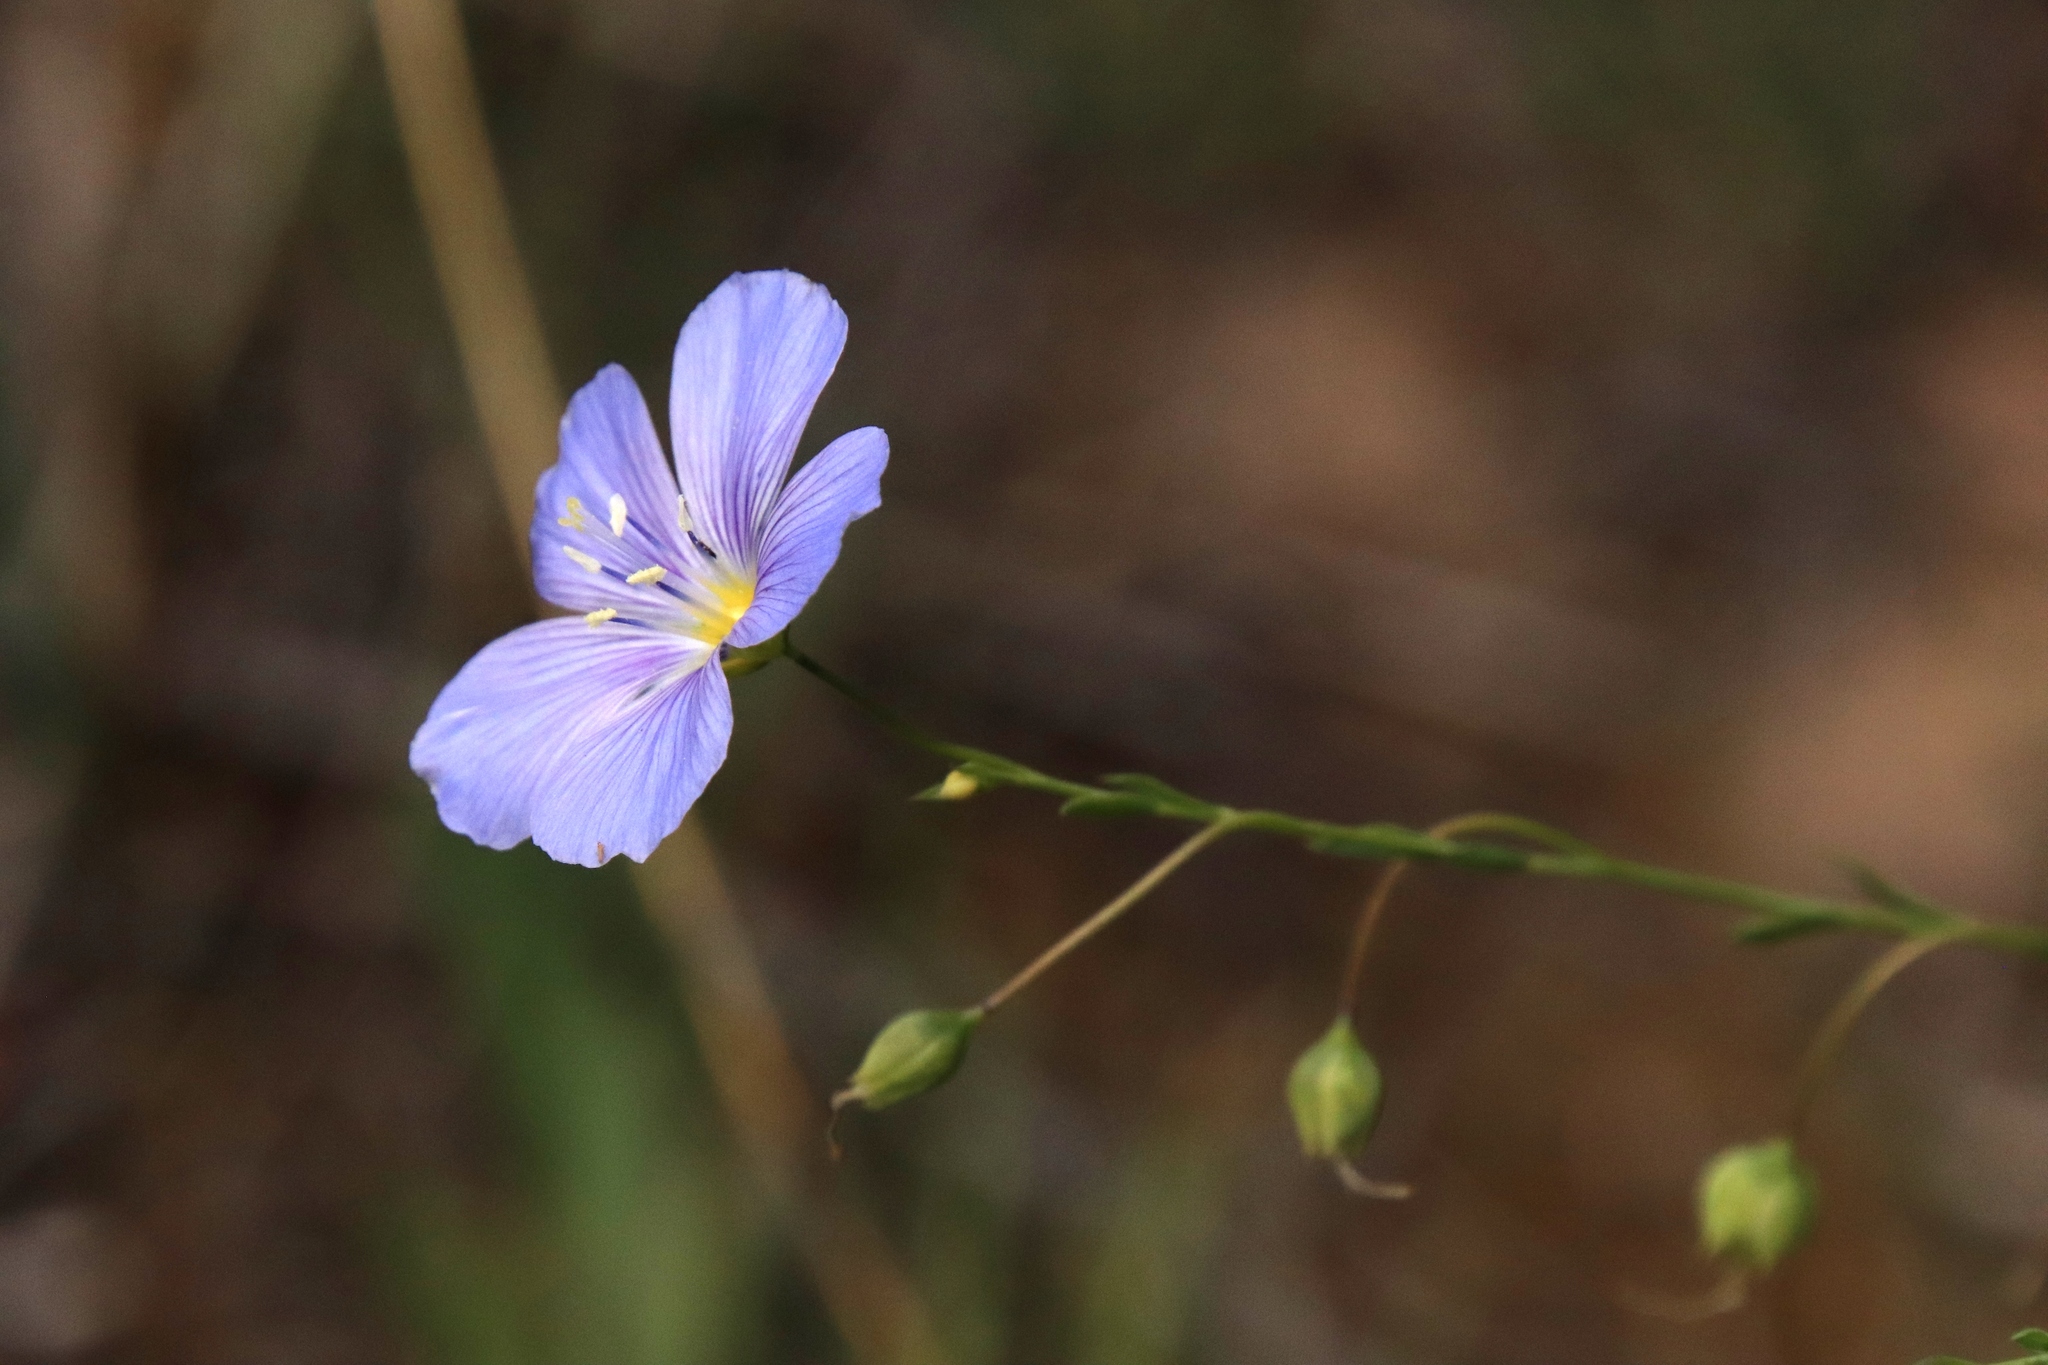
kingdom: Plantae
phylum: Tracheophyta
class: Magnoliopsida
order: Malpighiales
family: Linaceae
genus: Linum
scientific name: Linum lewisii
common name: Prairie flax
